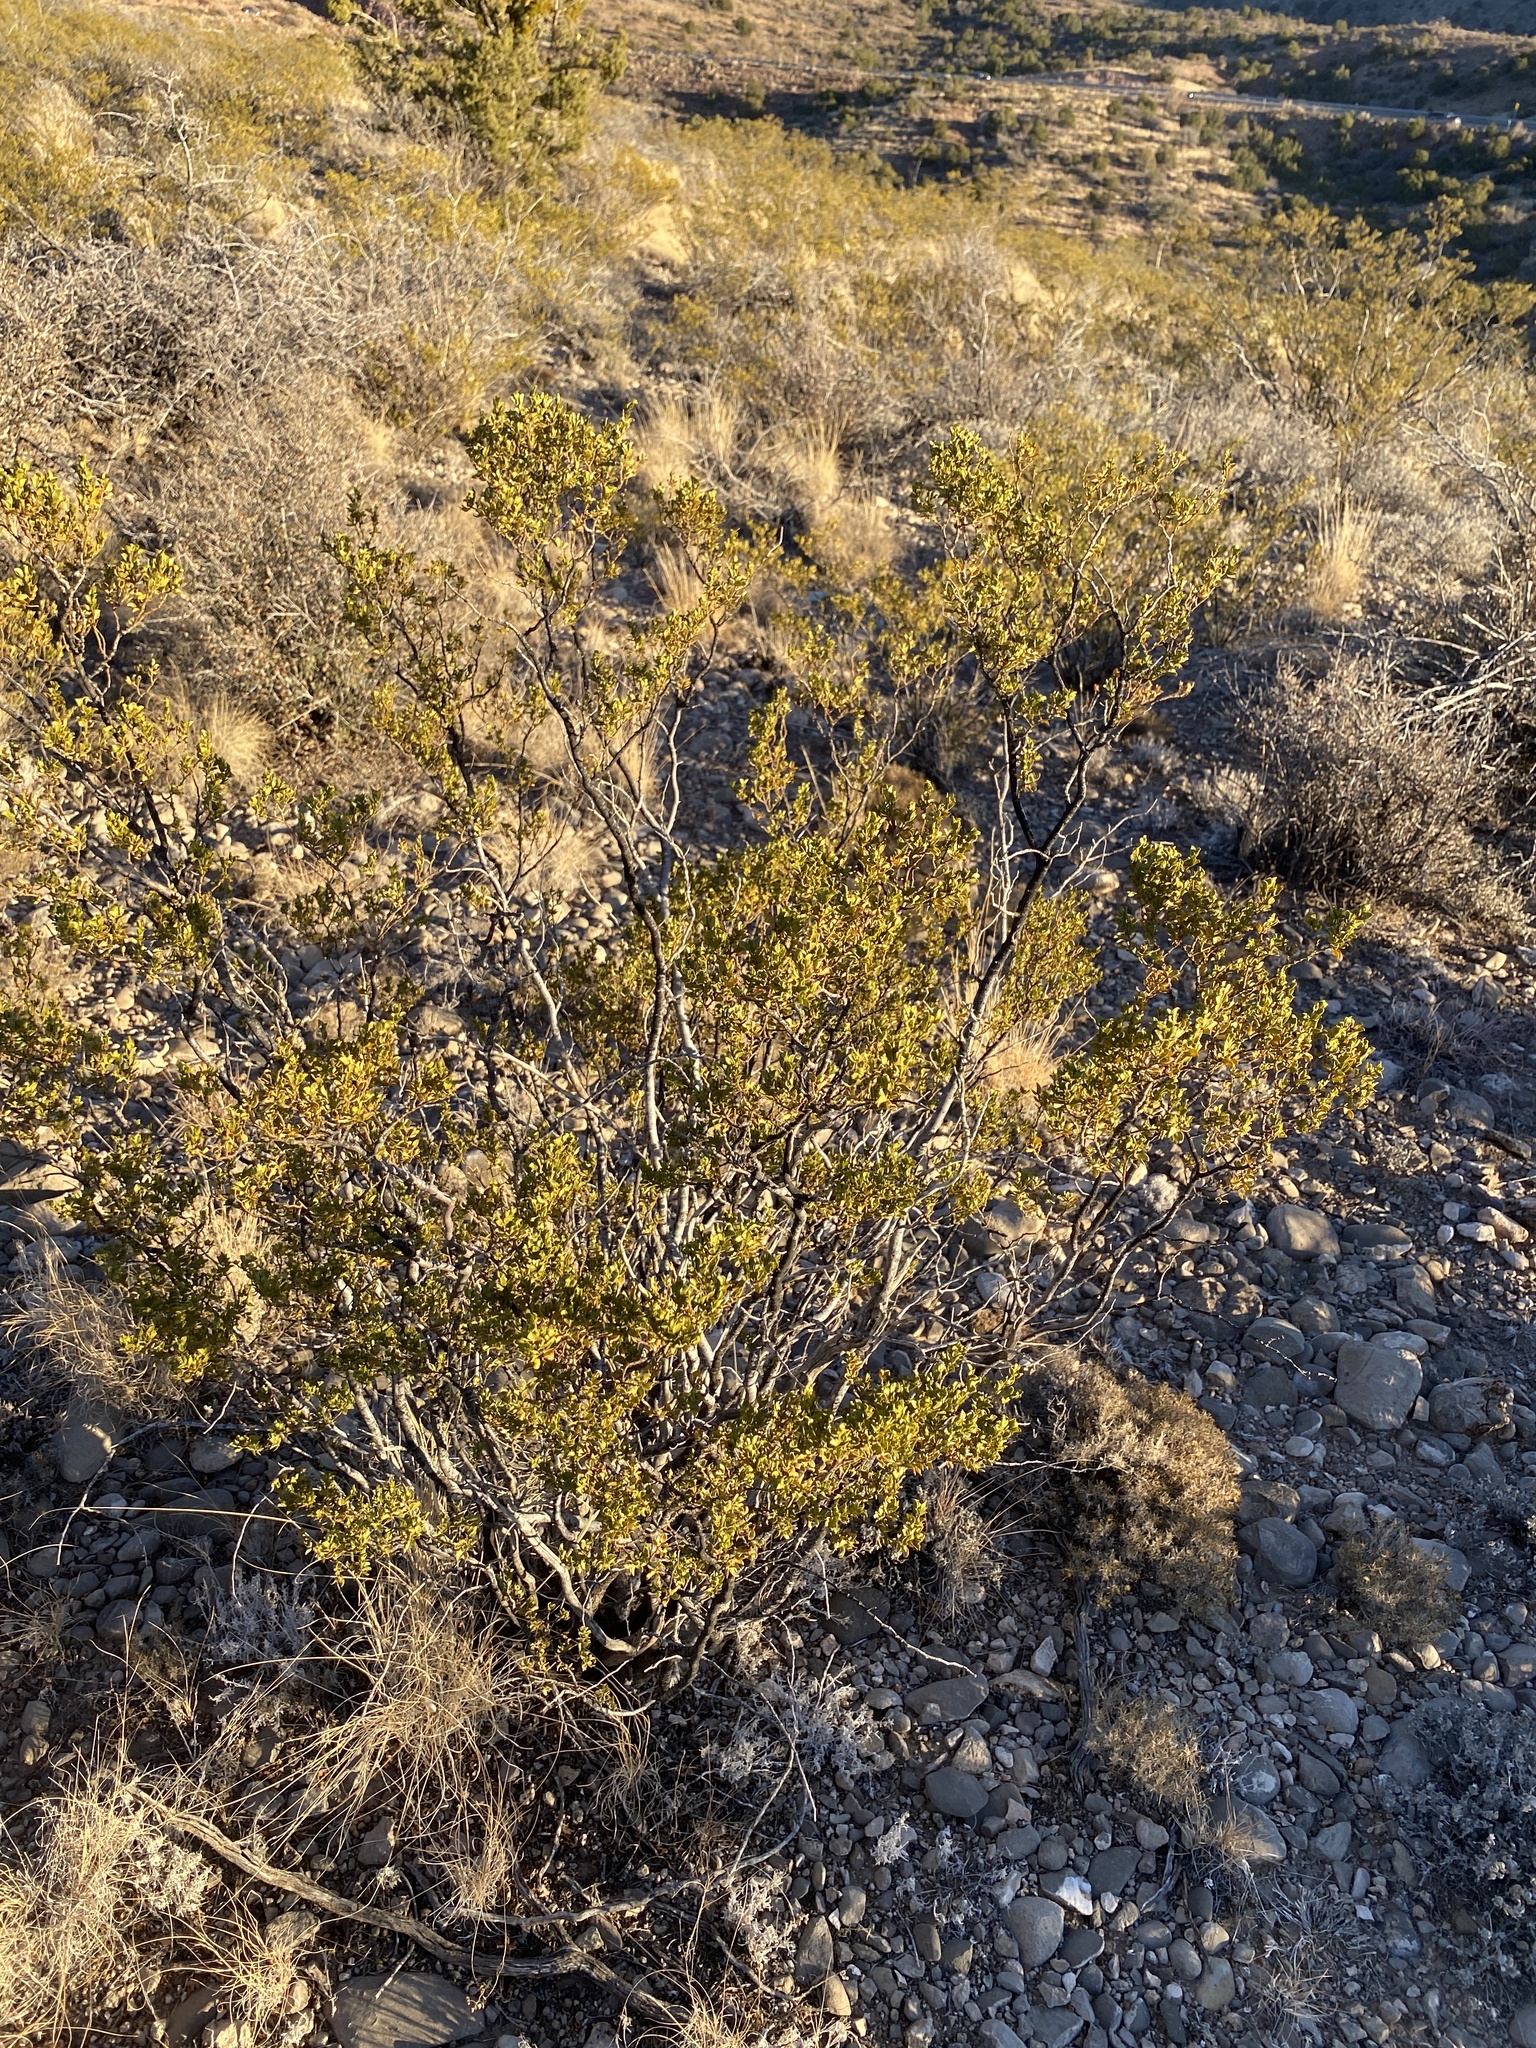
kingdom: Plantae
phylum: Tracheophyta
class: Magnoliopsida
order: Zygophyllales
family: Zygophyllaceae
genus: Larrea
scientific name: Larrea tridentata
